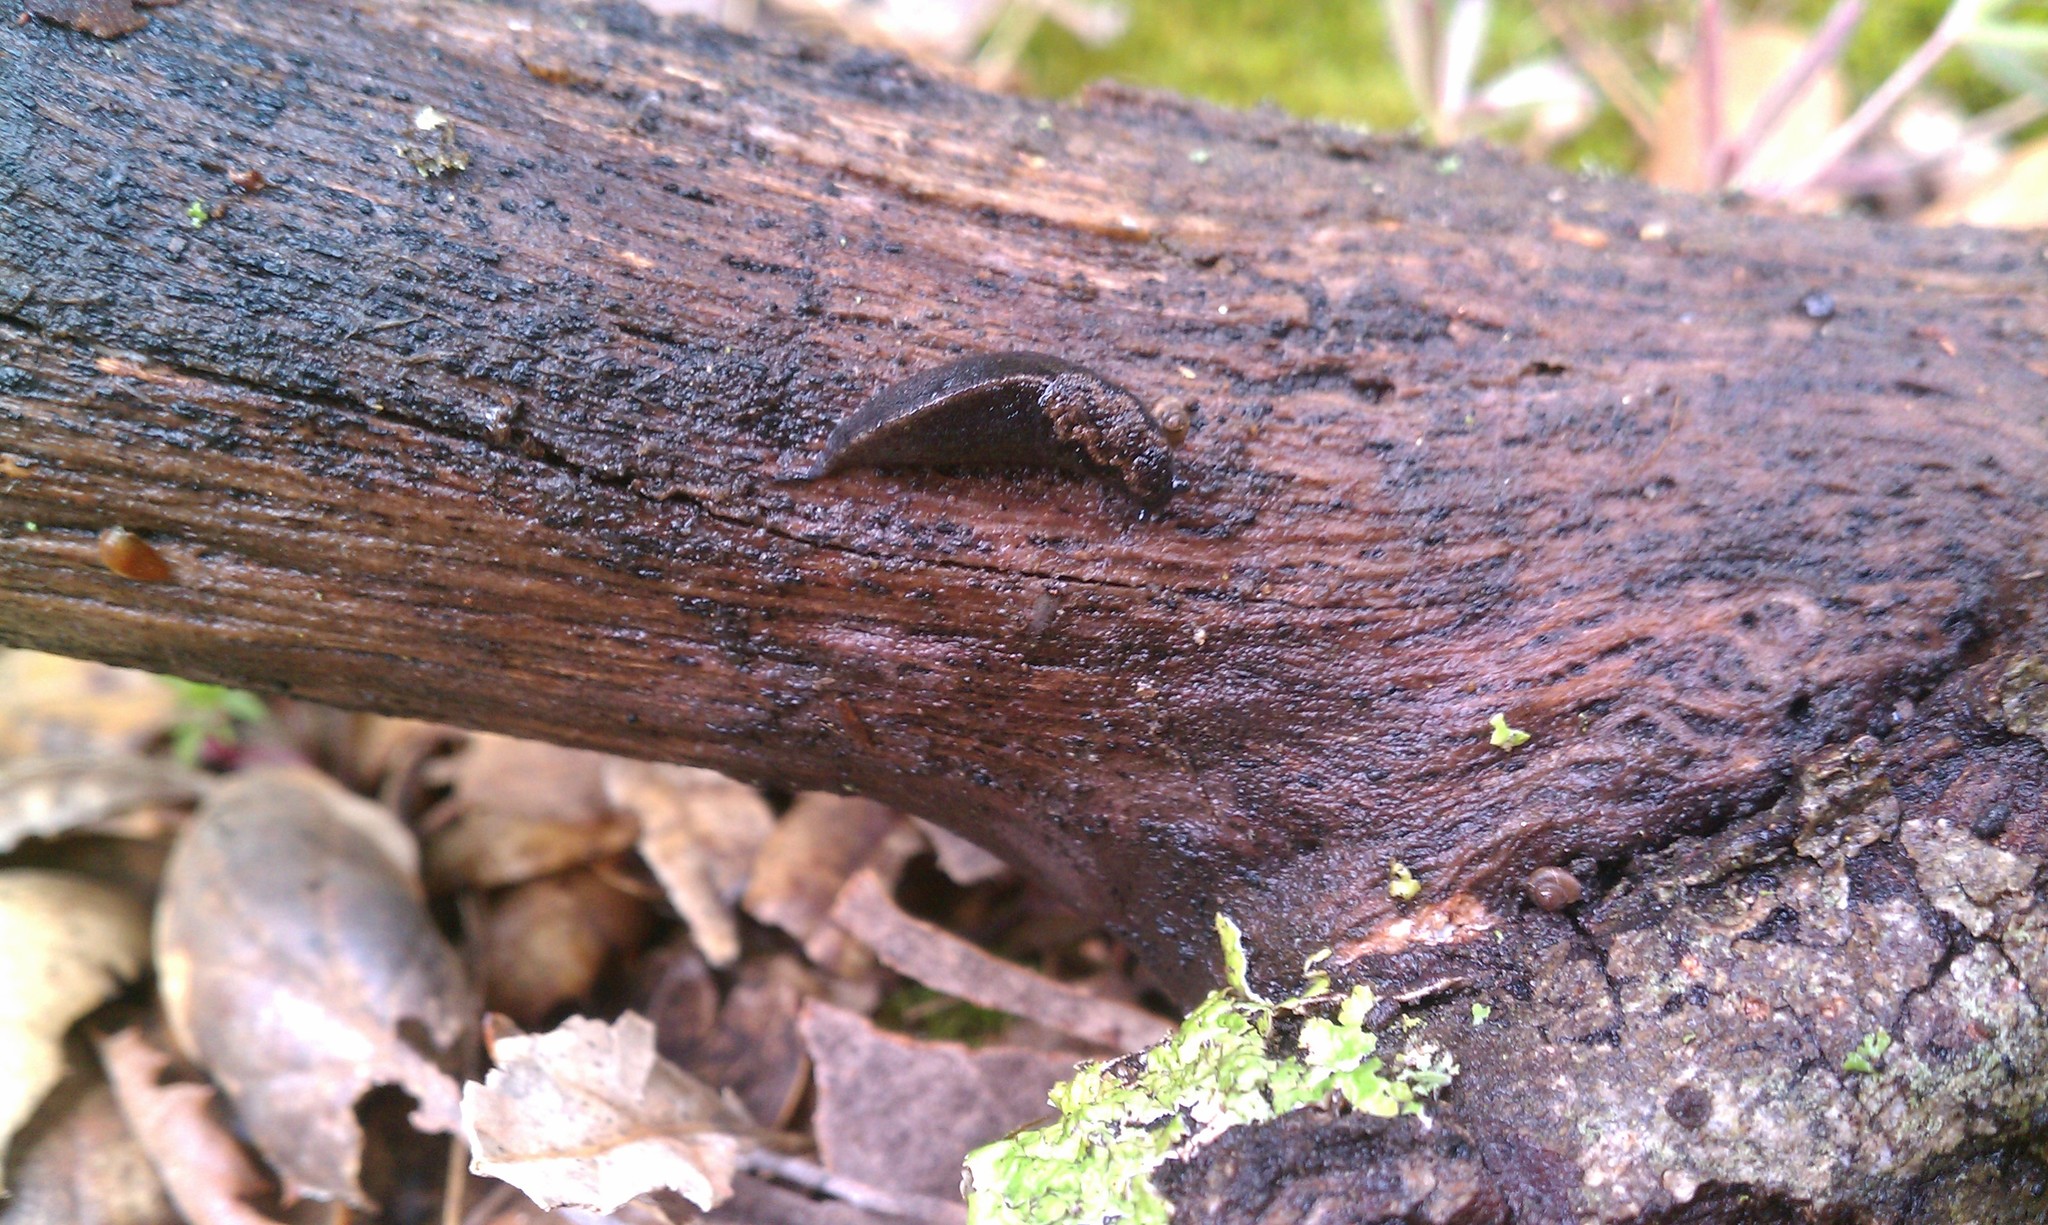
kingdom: Animalia
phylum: Mollusca
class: Gastropoda
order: Stylommatophora
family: Ariolimacidae
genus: Anadenulus
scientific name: Anadenulus cockerelli
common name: American keeled slug
